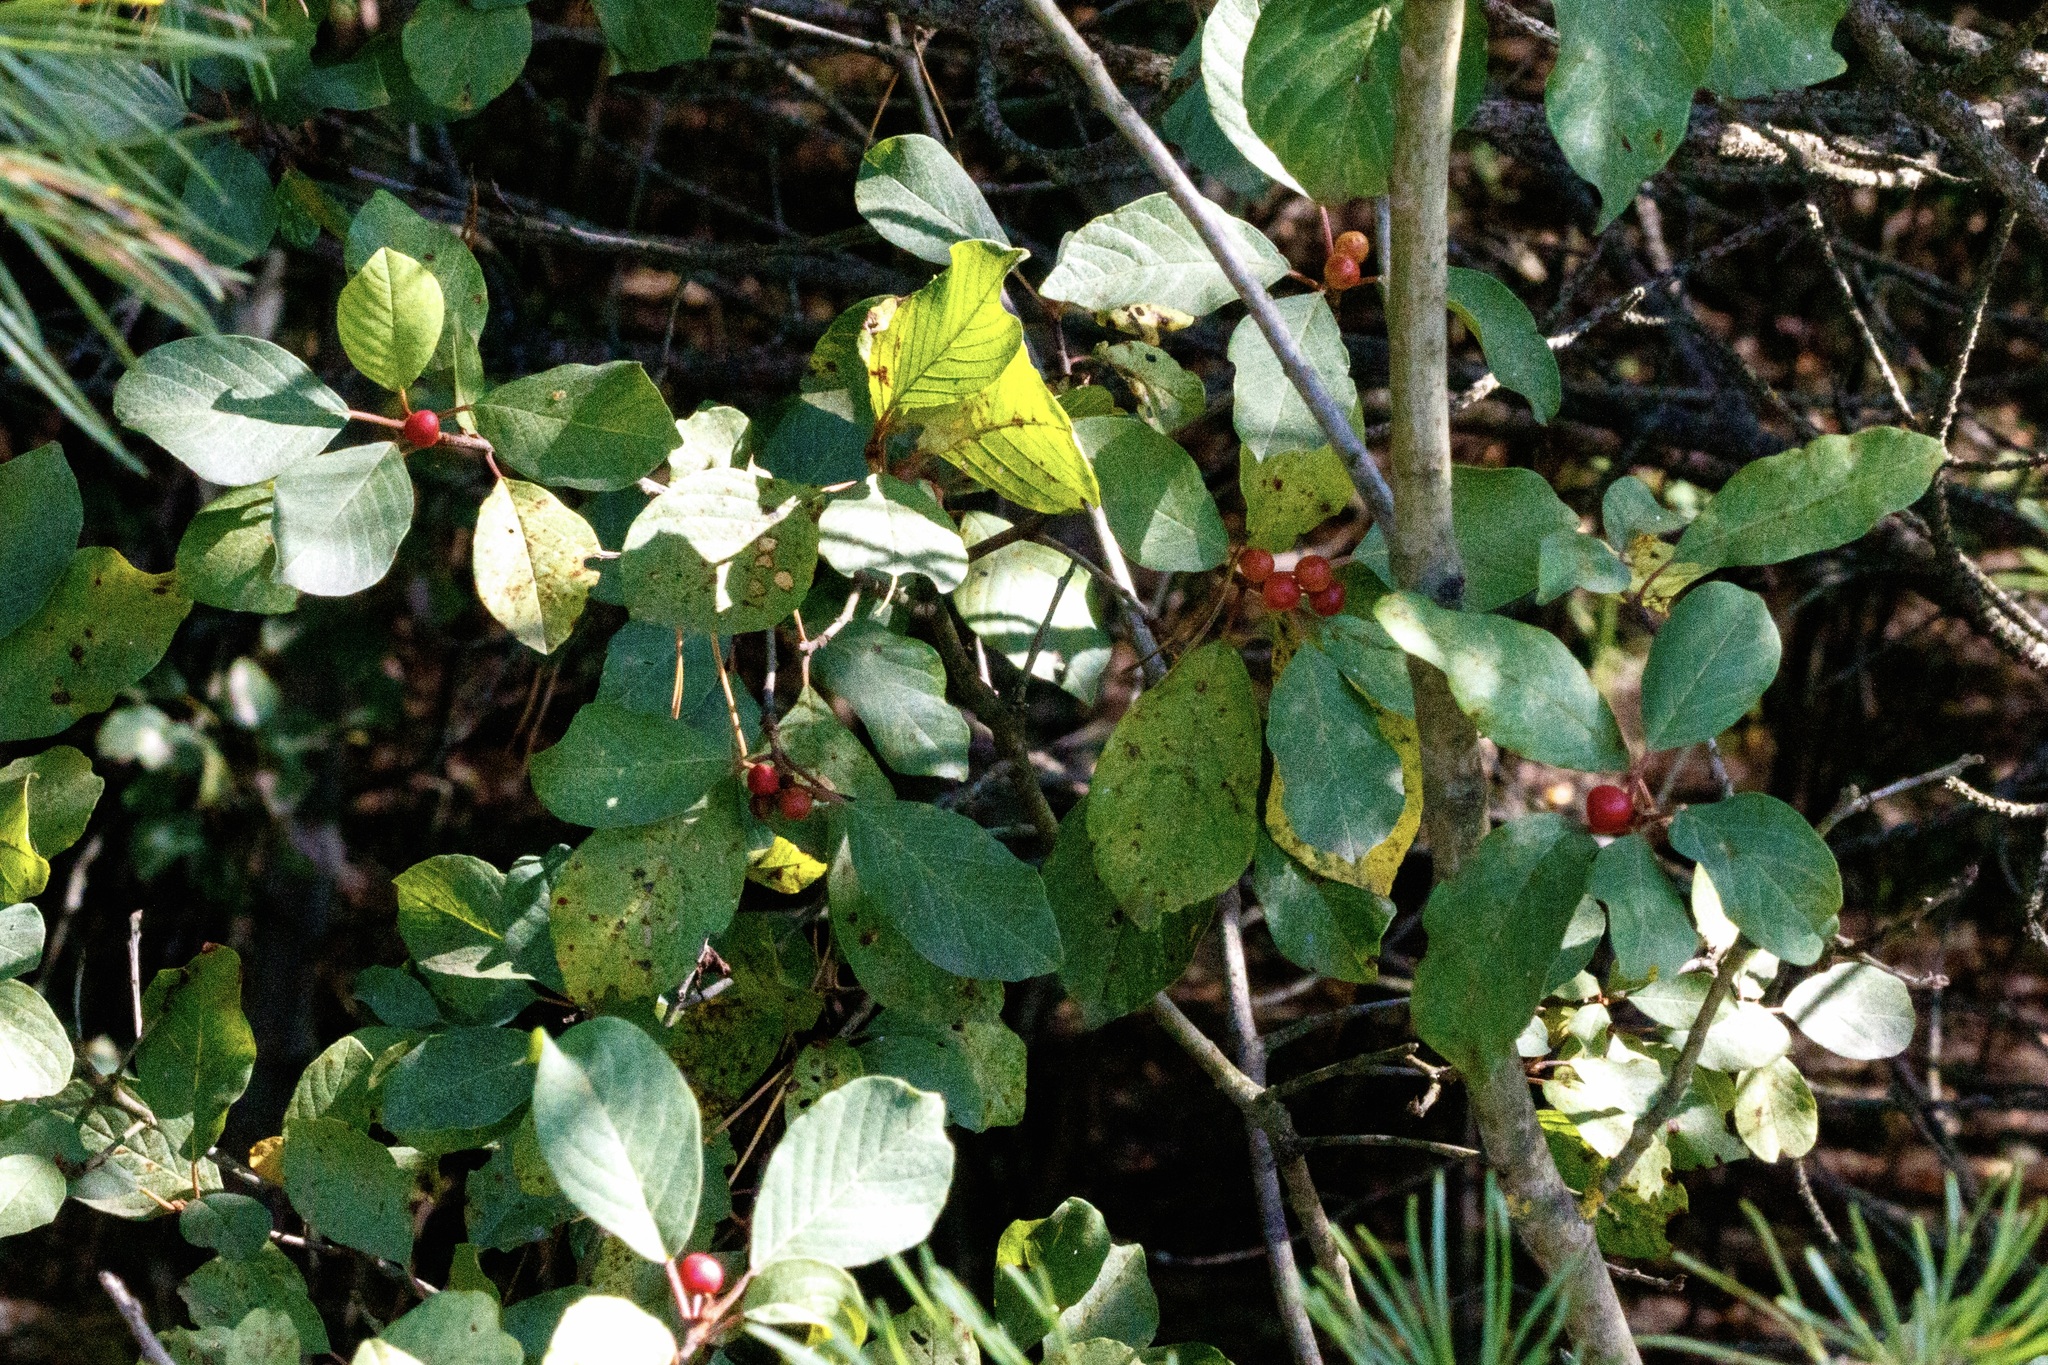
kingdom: Plantae
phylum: Tracheophyta
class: Magnoliopsida
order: Rosales
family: Rhamnaceae
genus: Frangula
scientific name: Frangula alnus
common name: Alder buckthorn
